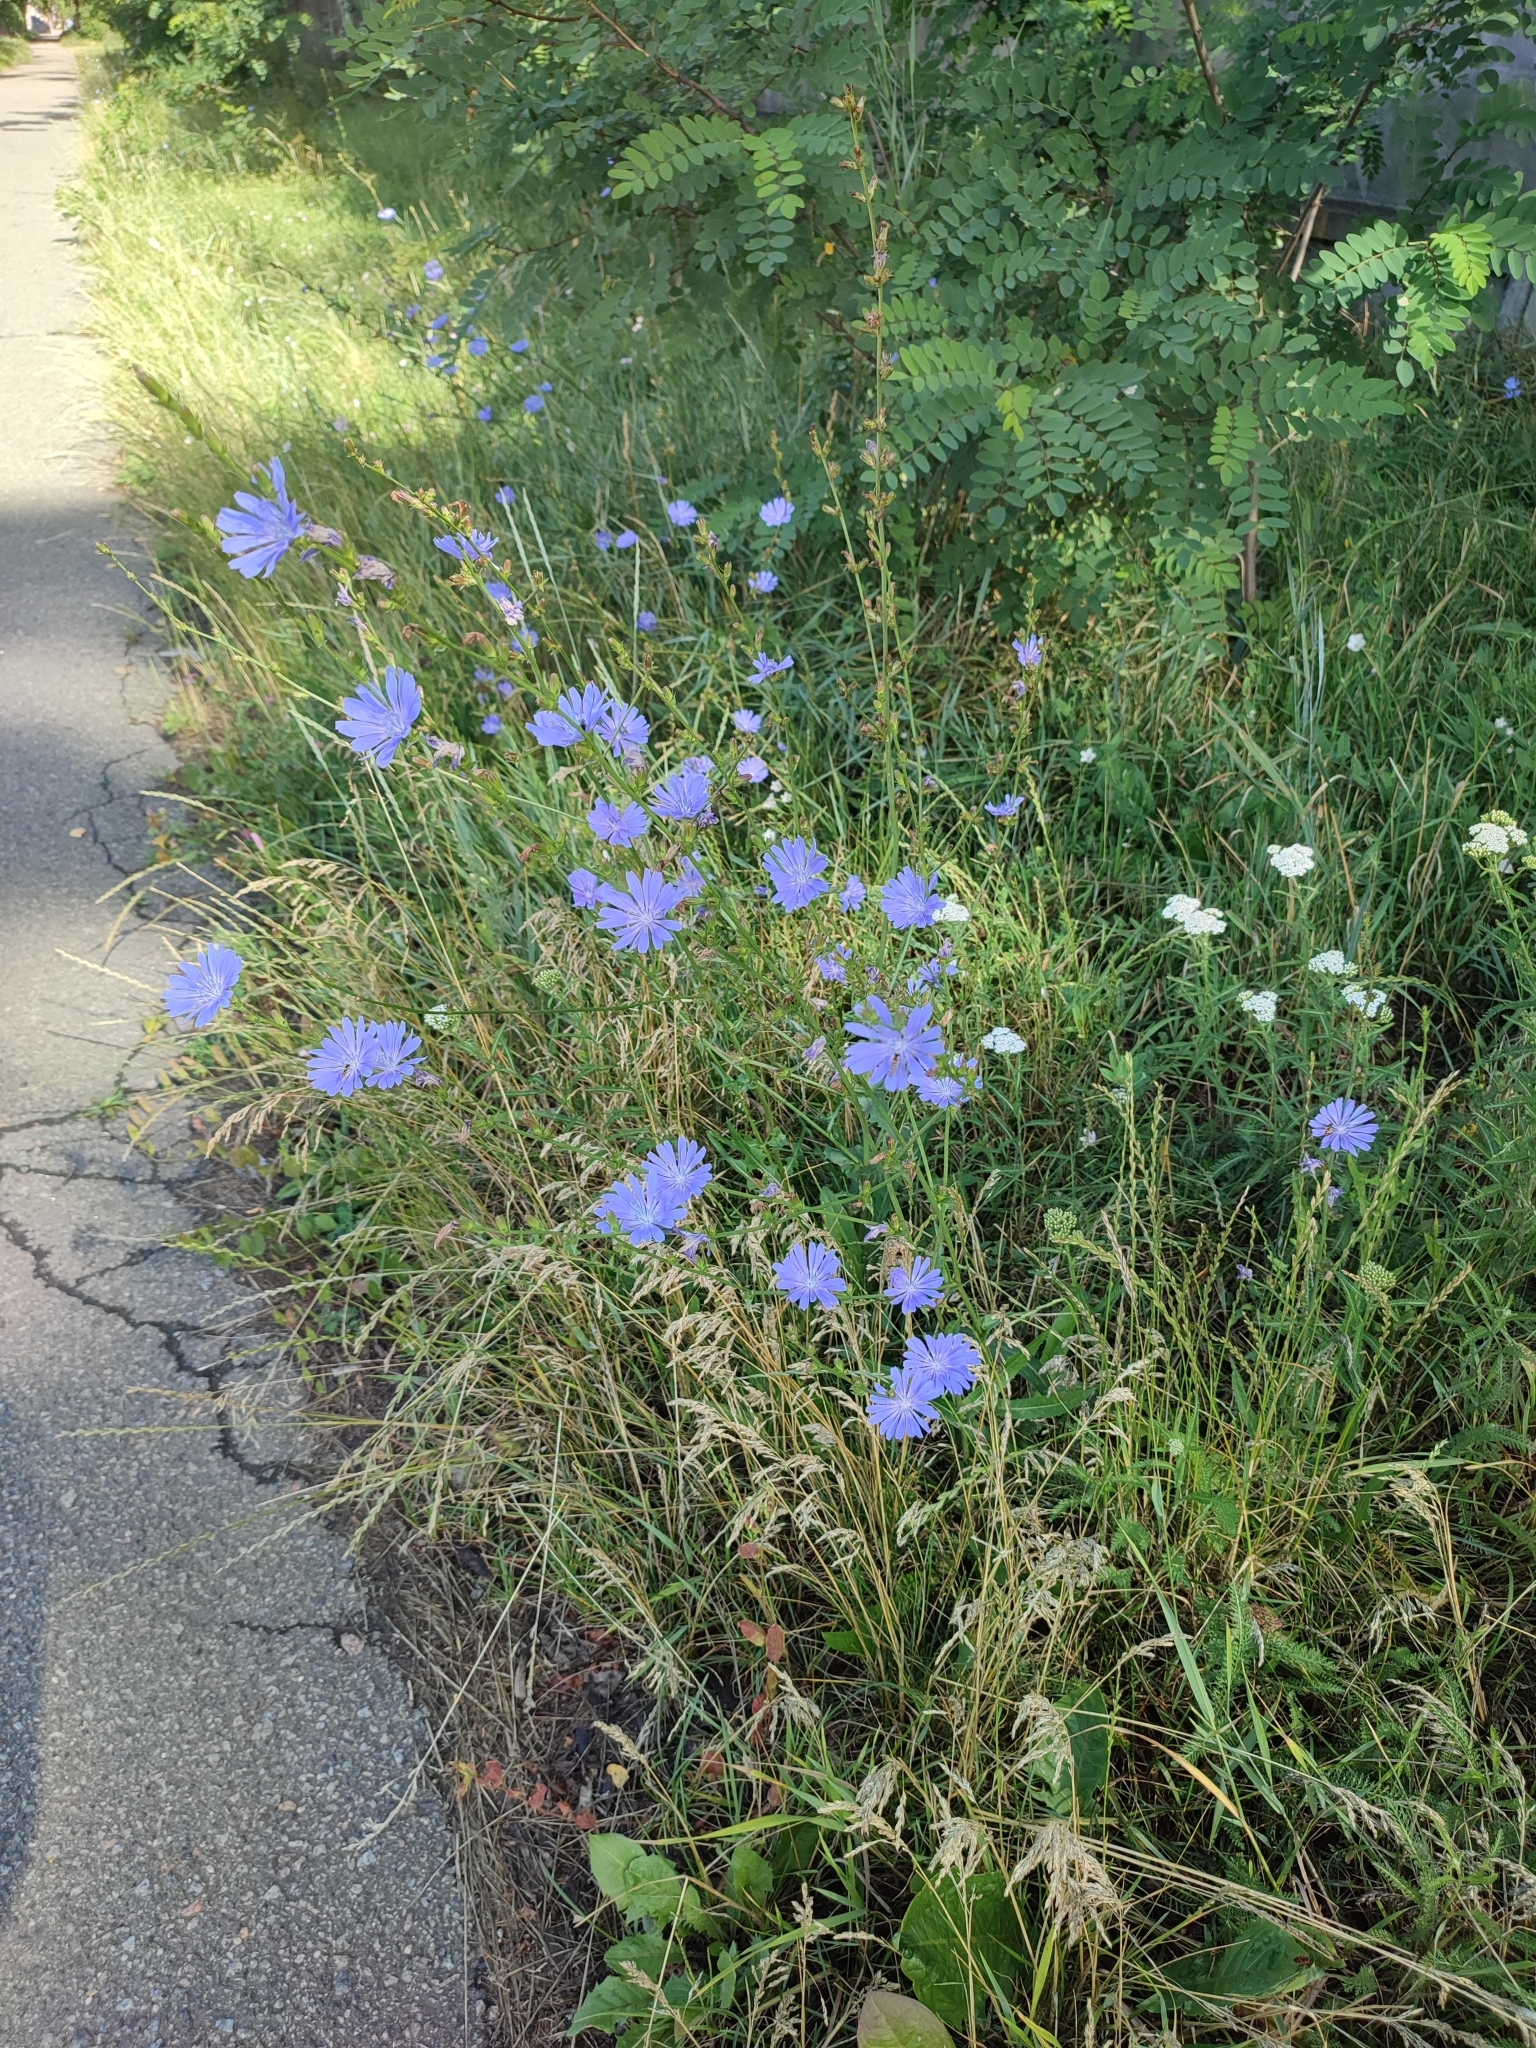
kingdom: Plantae
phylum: Tracheophyta
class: Magnoliopsida
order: Asterales
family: Asteraceae
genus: Cichorium
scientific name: Cichorium intybus
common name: Chicory
